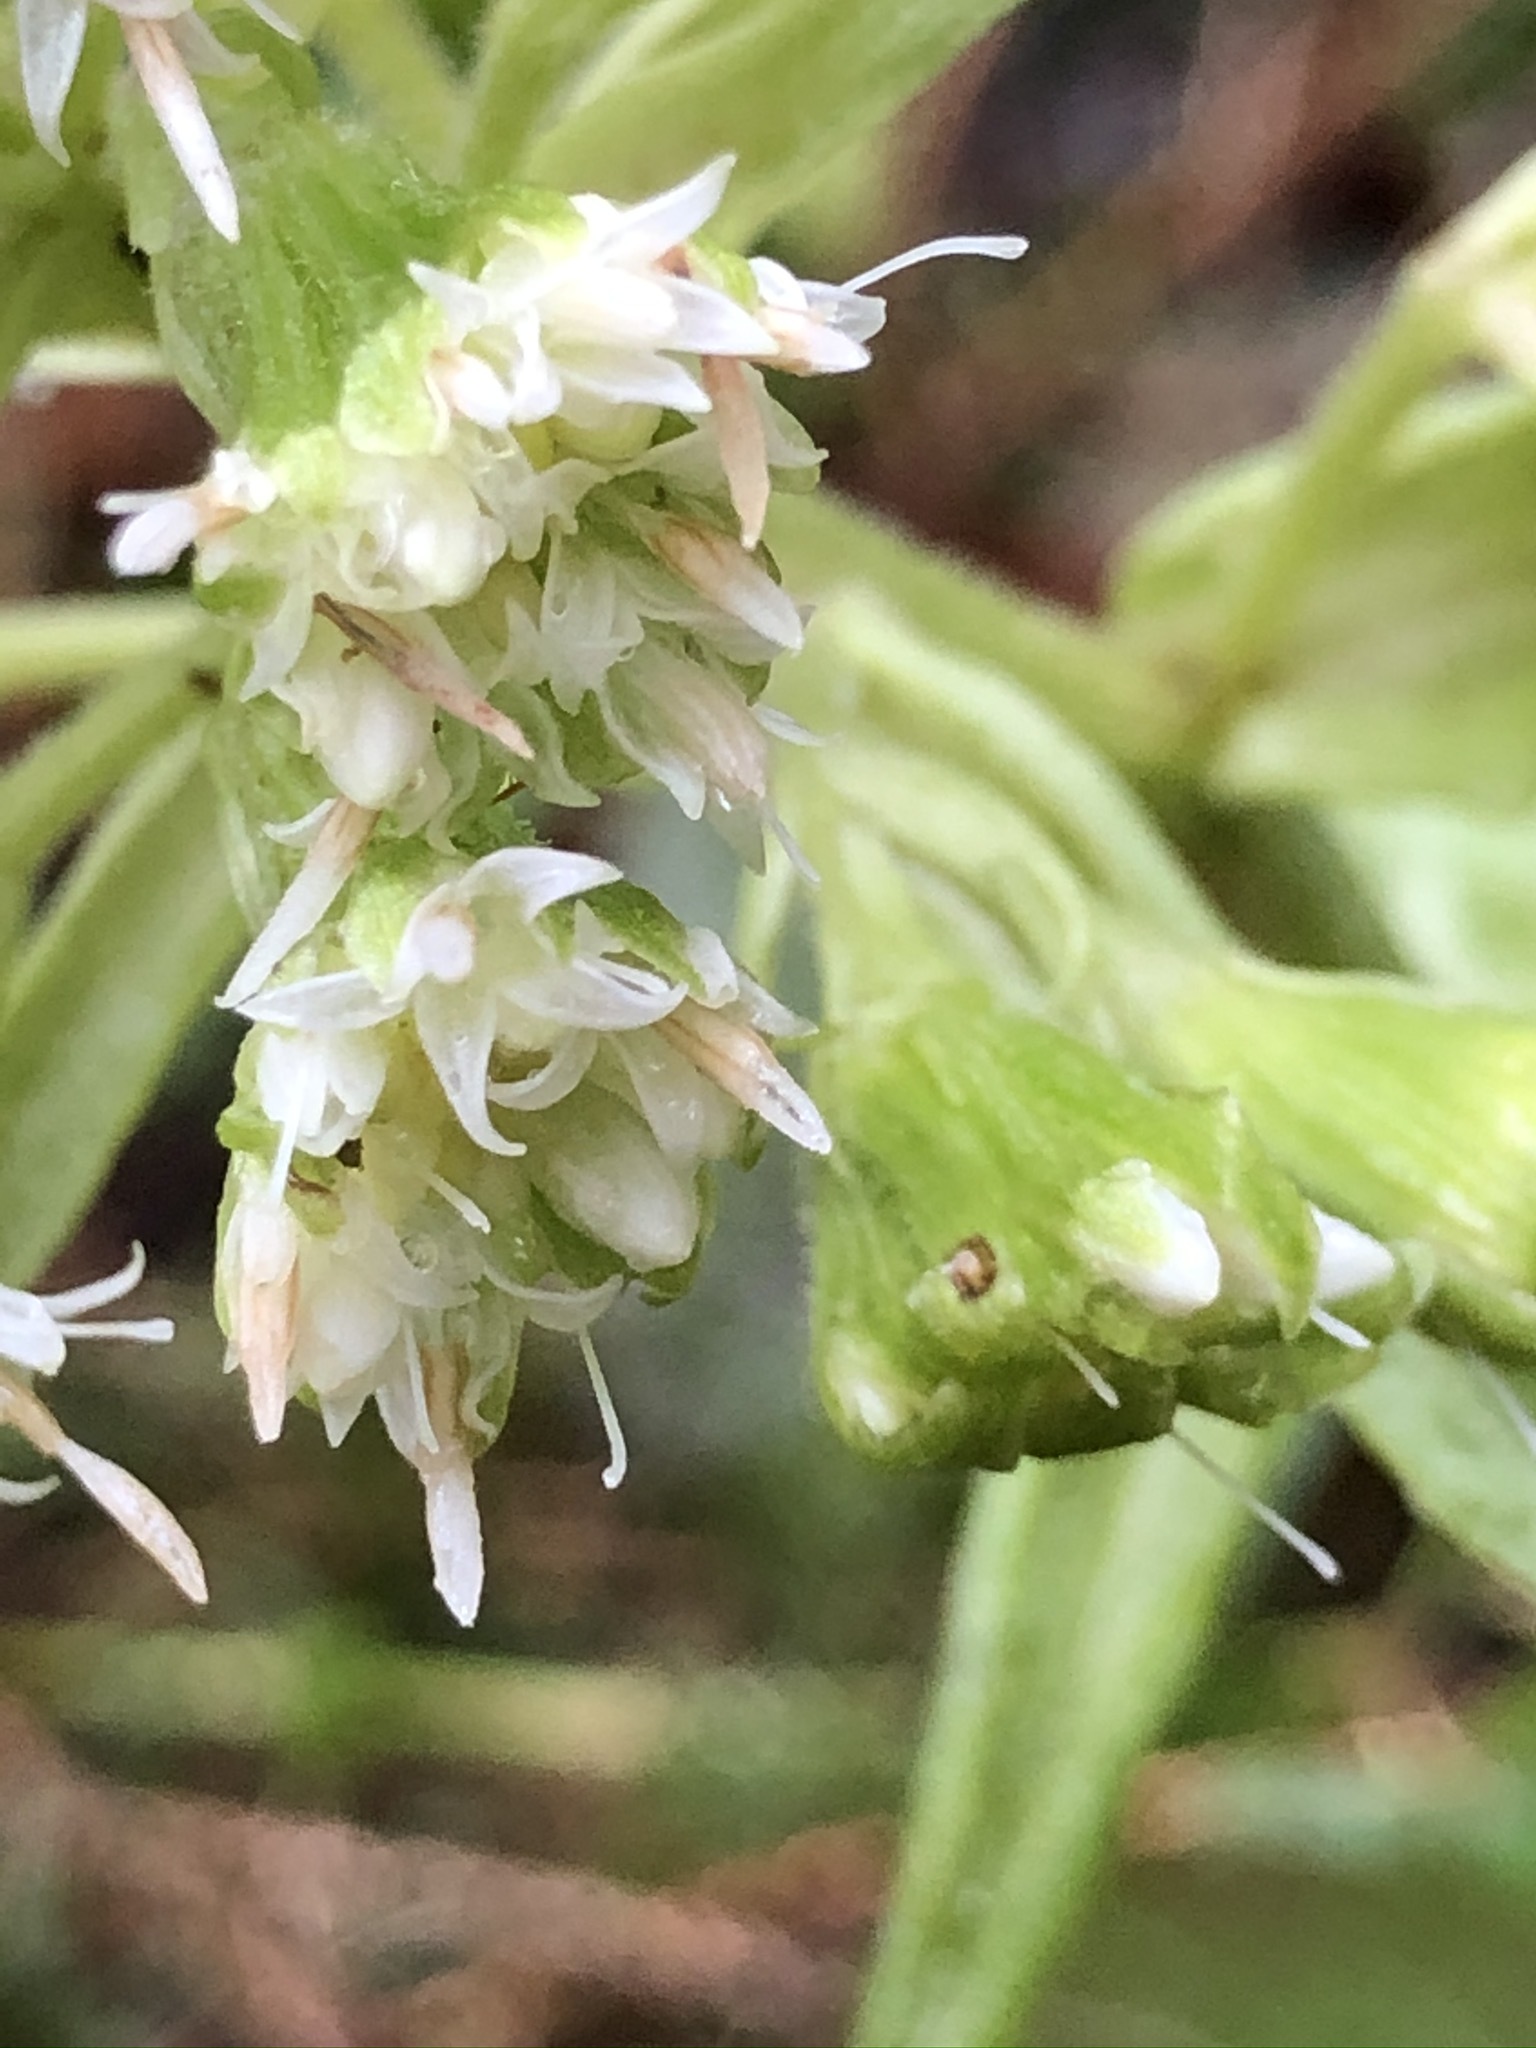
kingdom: Plantae
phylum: Tracheophyta
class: Magnoliopsida
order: Asterales
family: Asteraceae
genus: Petasites
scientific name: Petasites albus
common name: White butterbur
